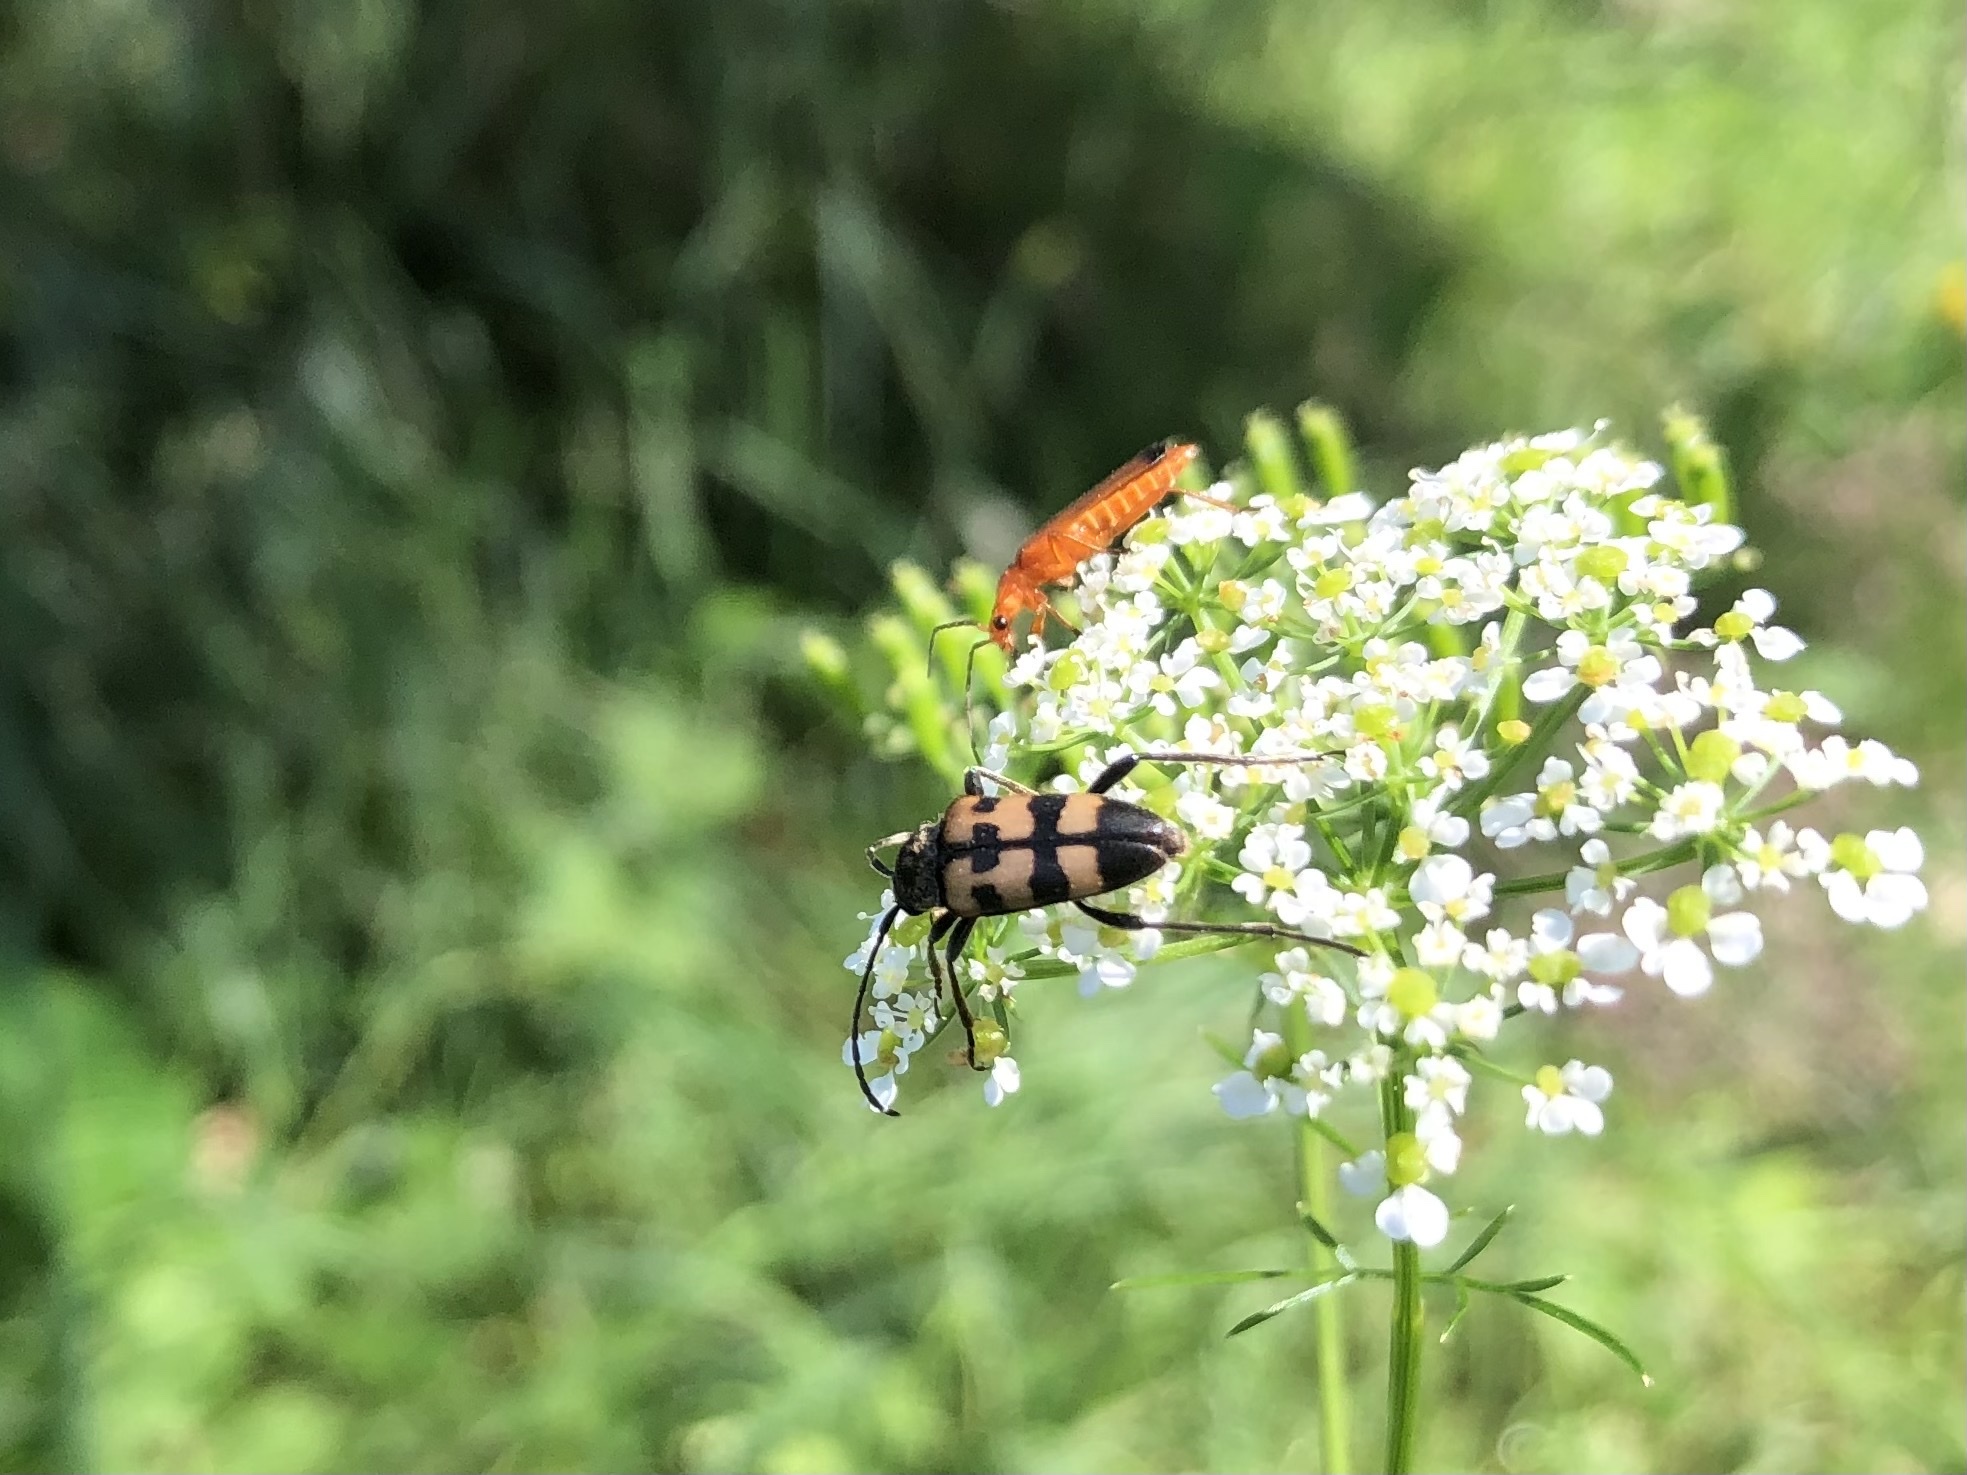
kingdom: Animalia
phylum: Arthropoda
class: Insecta
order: Coleoptera
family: Cerambycidae
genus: Pachytodes
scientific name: Pachytodes
